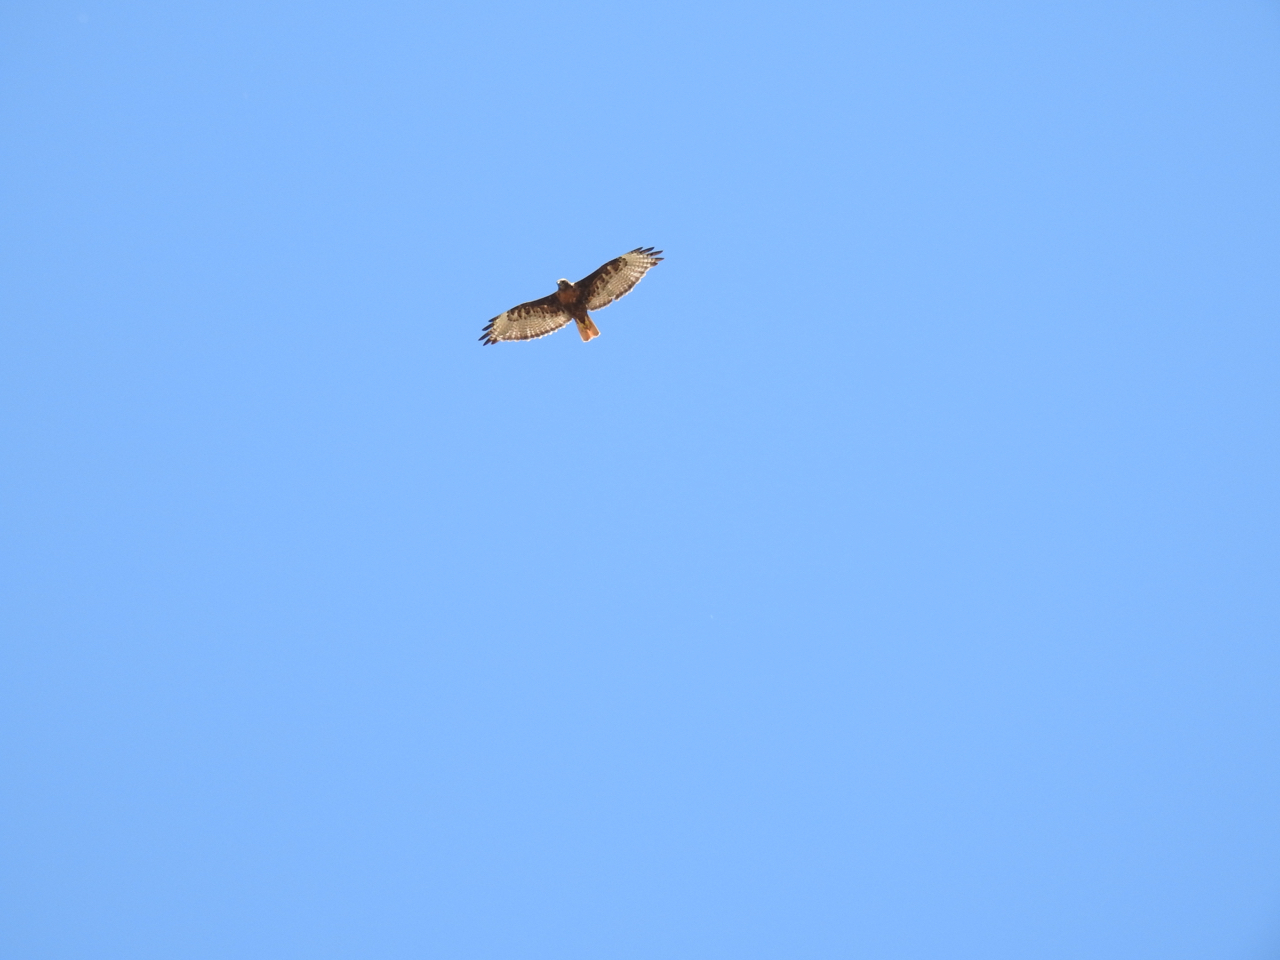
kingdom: Animalia
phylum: Chordata
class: Aves
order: Accipitriformes
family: Accipitridae
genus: Buteo
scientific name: Buteo jamaicensis
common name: Red-tailed hawk
